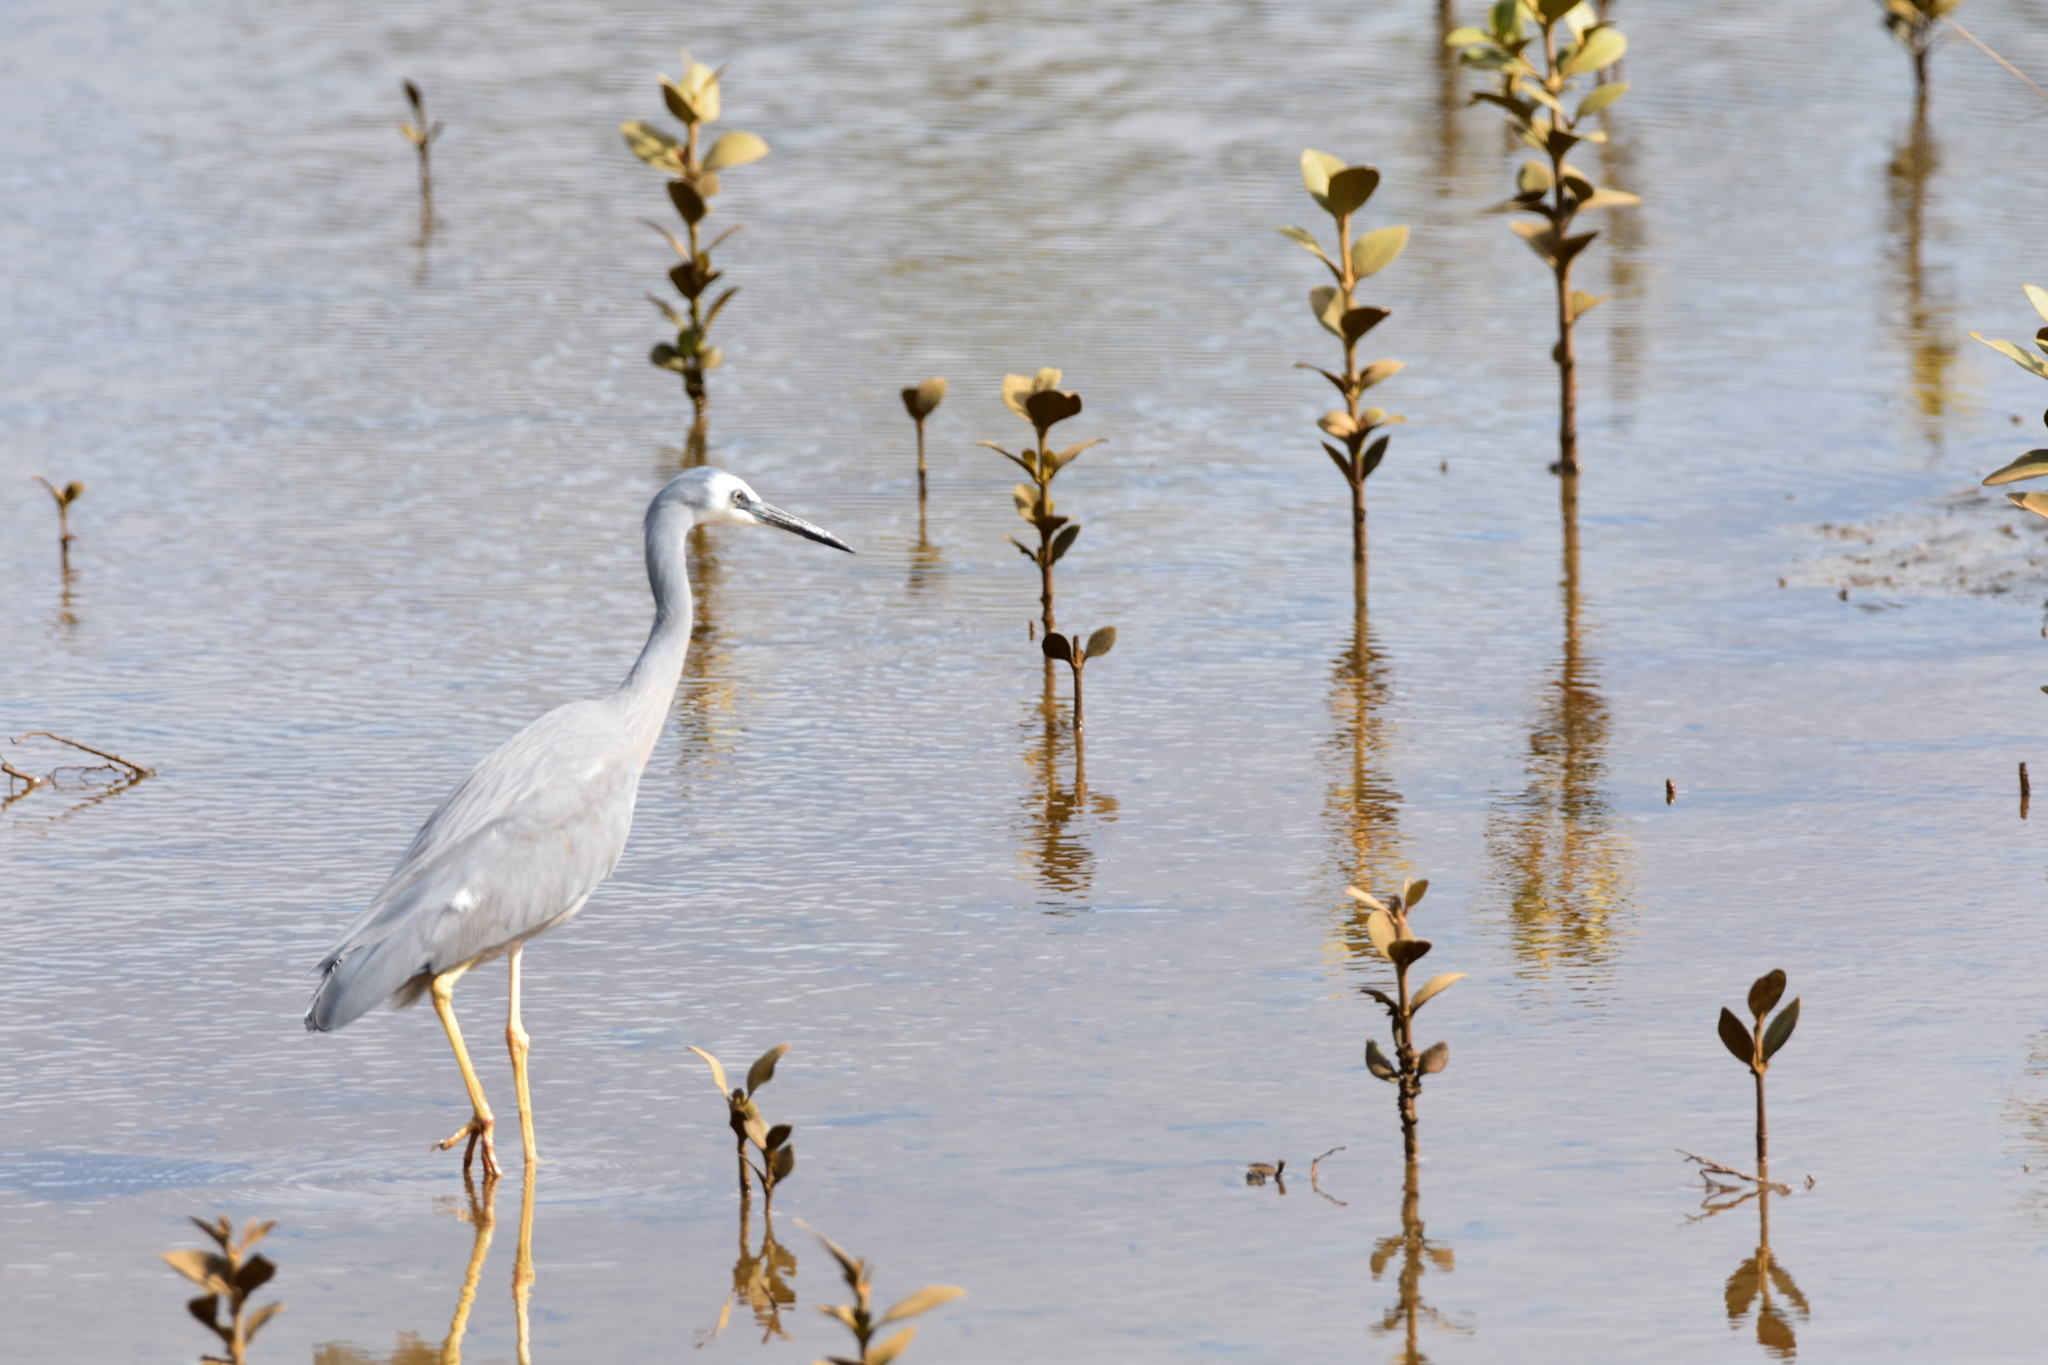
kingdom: Plantae
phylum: Tracheophyta
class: Magnoliopsida
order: Lamiales
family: Acanthaceae
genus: Avicennia
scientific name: Avicennia marina
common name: Gray mangrove
